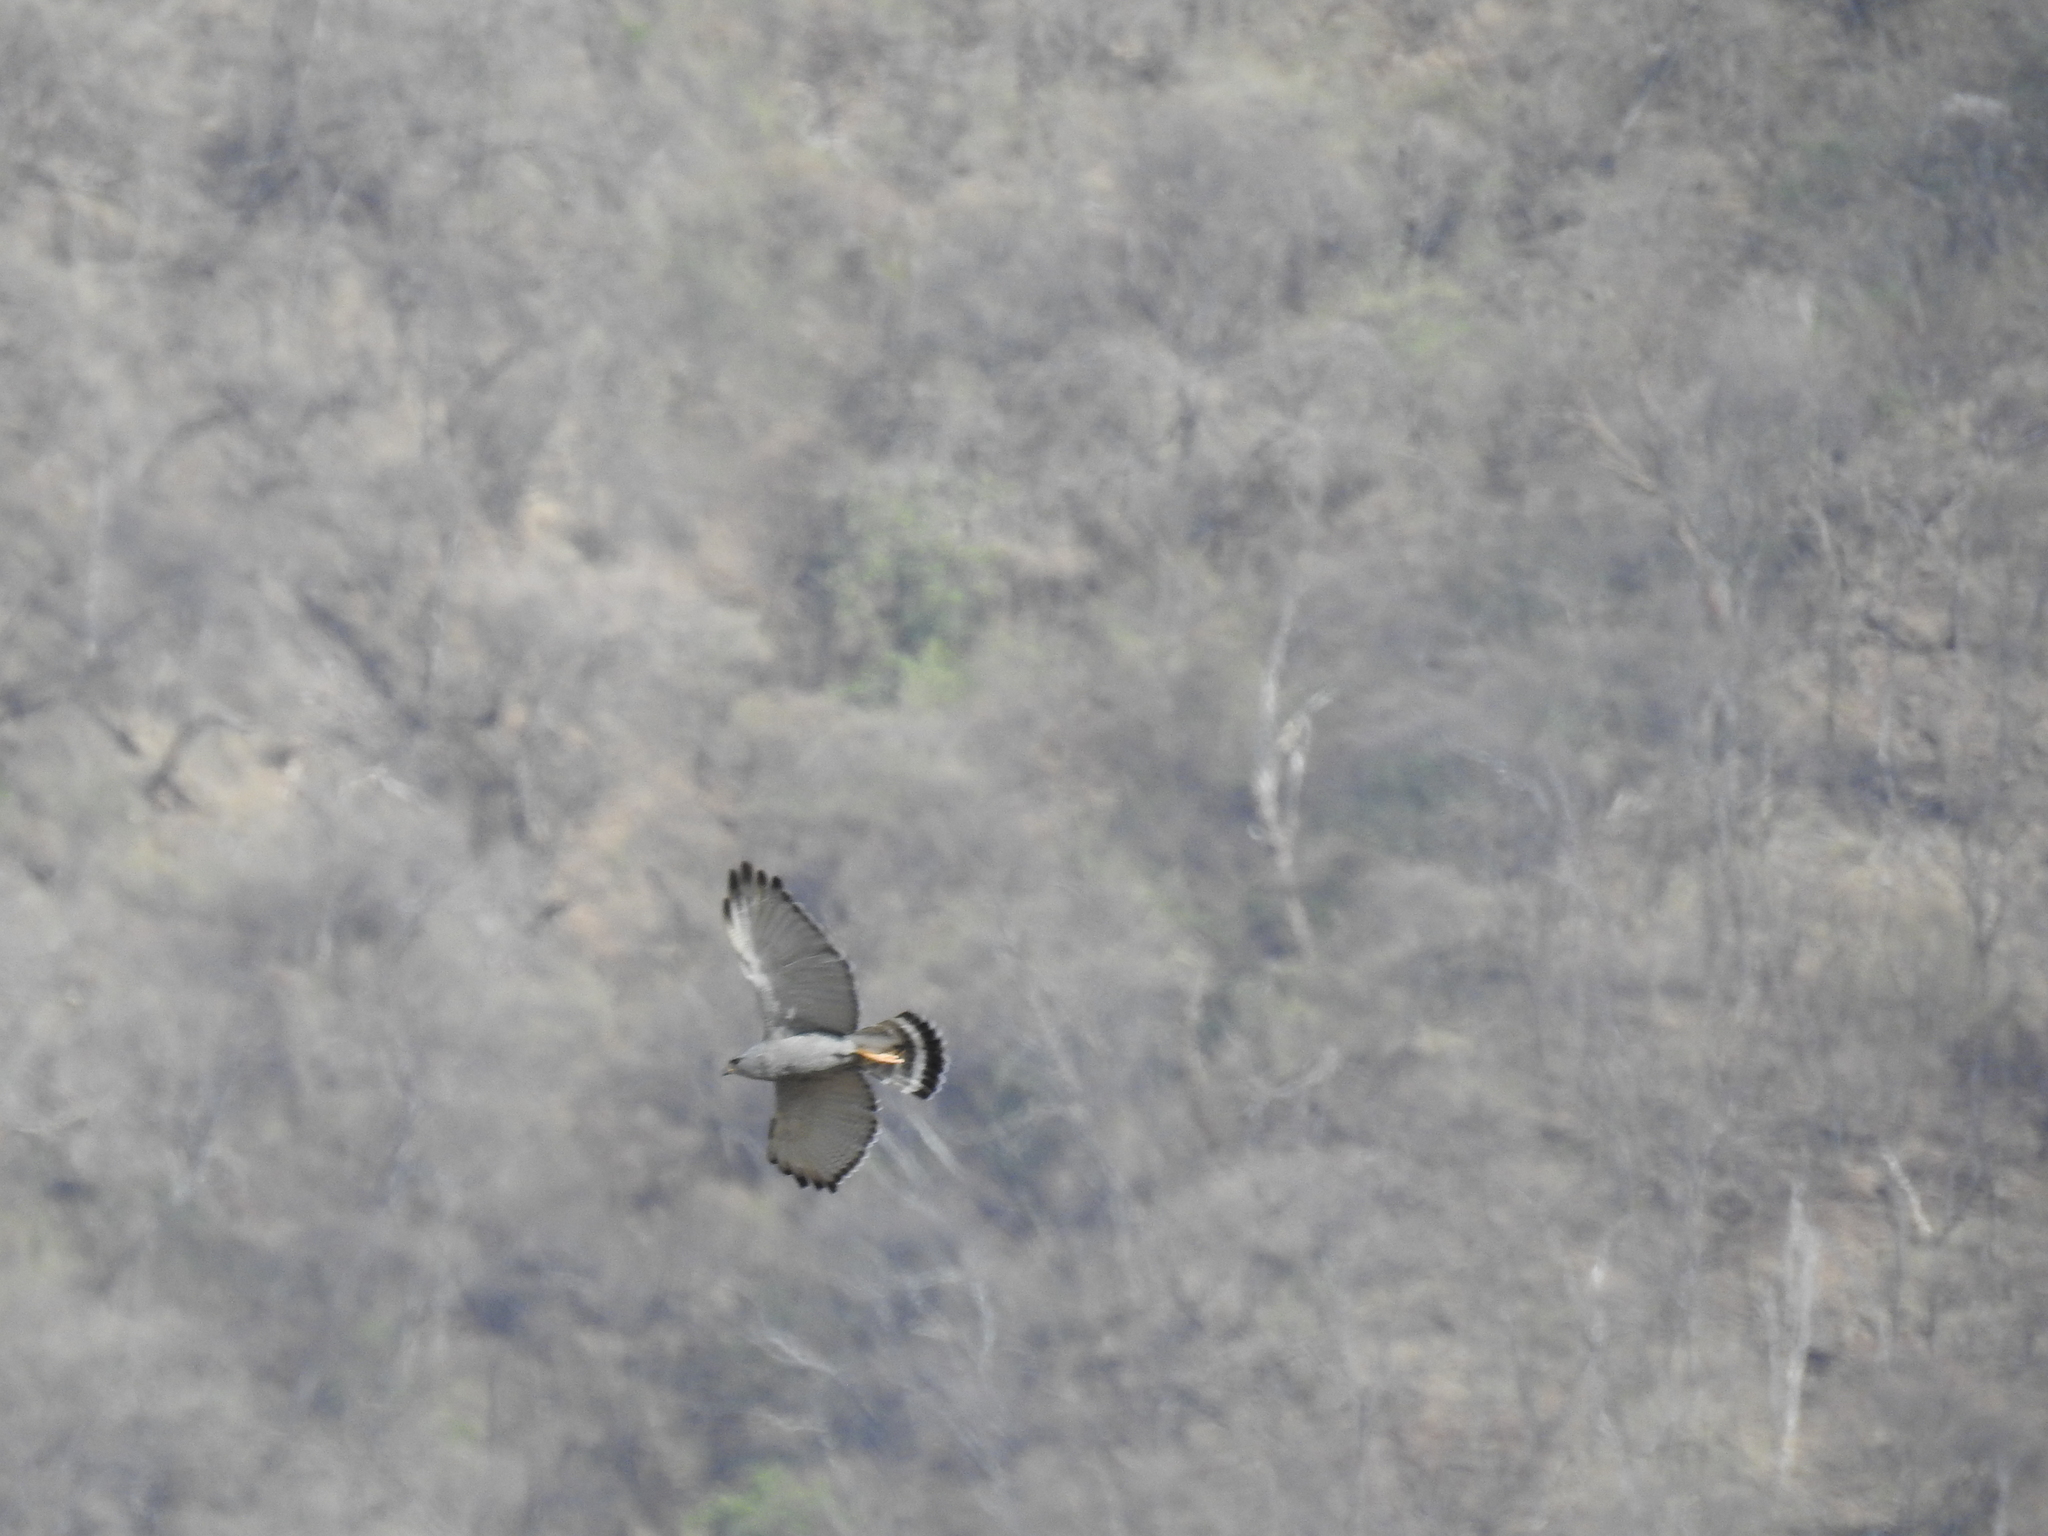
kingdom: Animalia
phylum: Chordata
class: Aves
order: Accipitriformes
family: Accipitridae
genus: Buteo
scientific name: Buteo nitidus
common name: Grey-lined hawk
